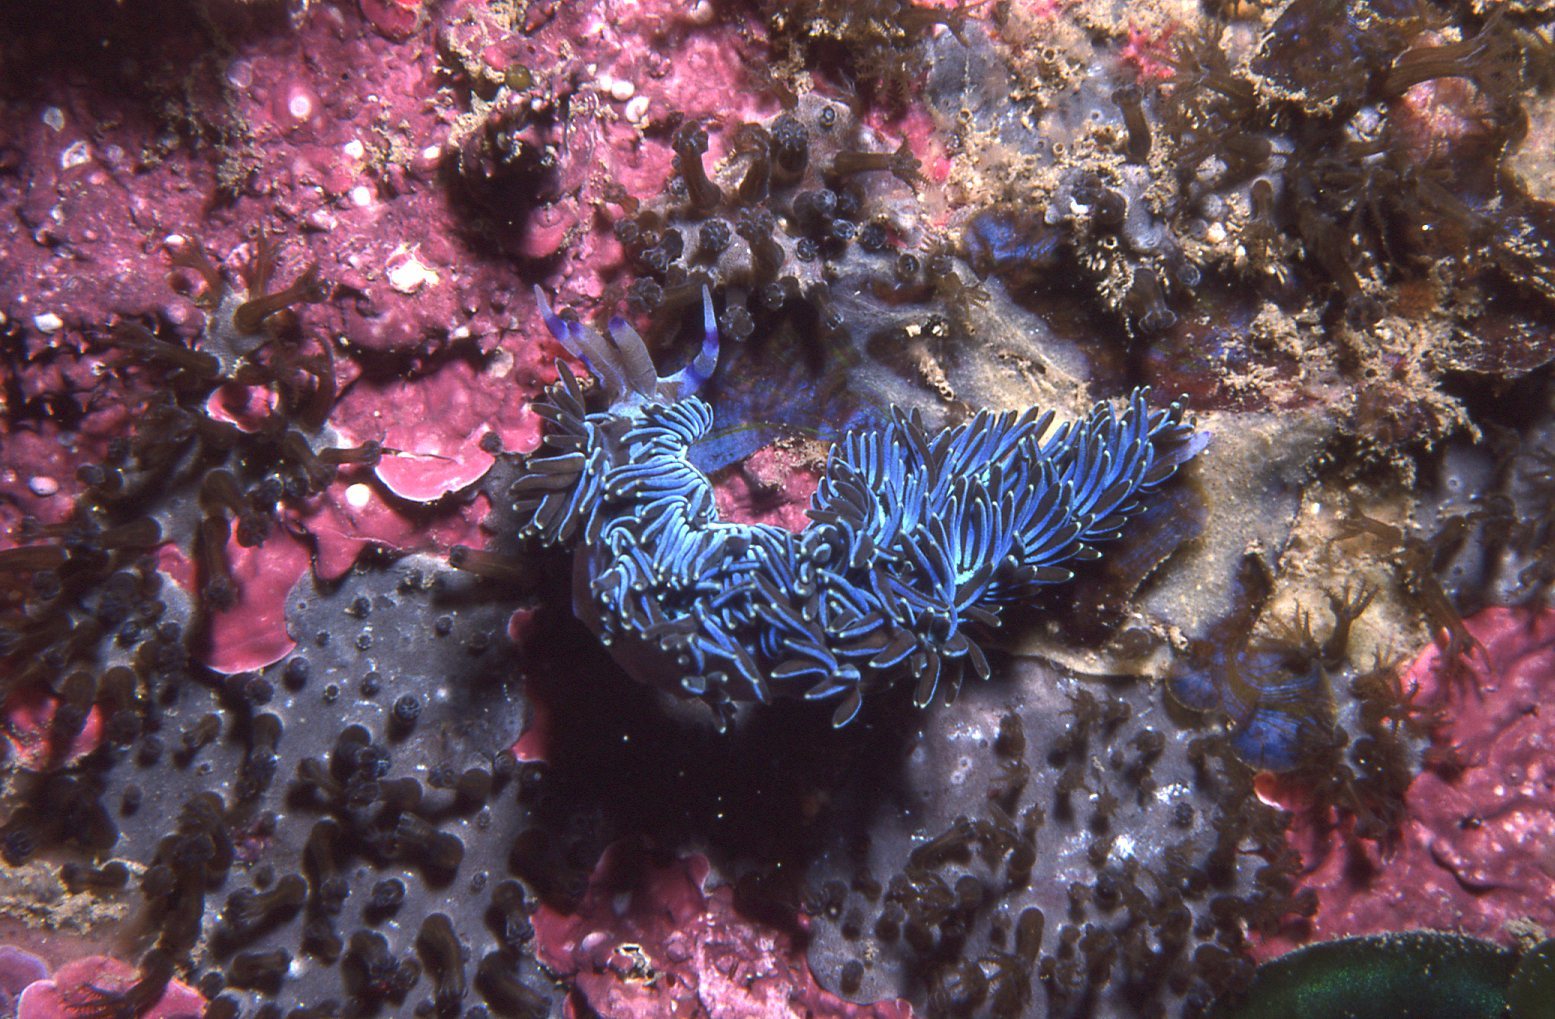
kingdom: Animalia
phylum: Mollusca
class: Gastropoda
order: Nudibranchia
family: Facelinidae
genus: Pteraeolidia
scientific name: Pteraeolidia ianthina
